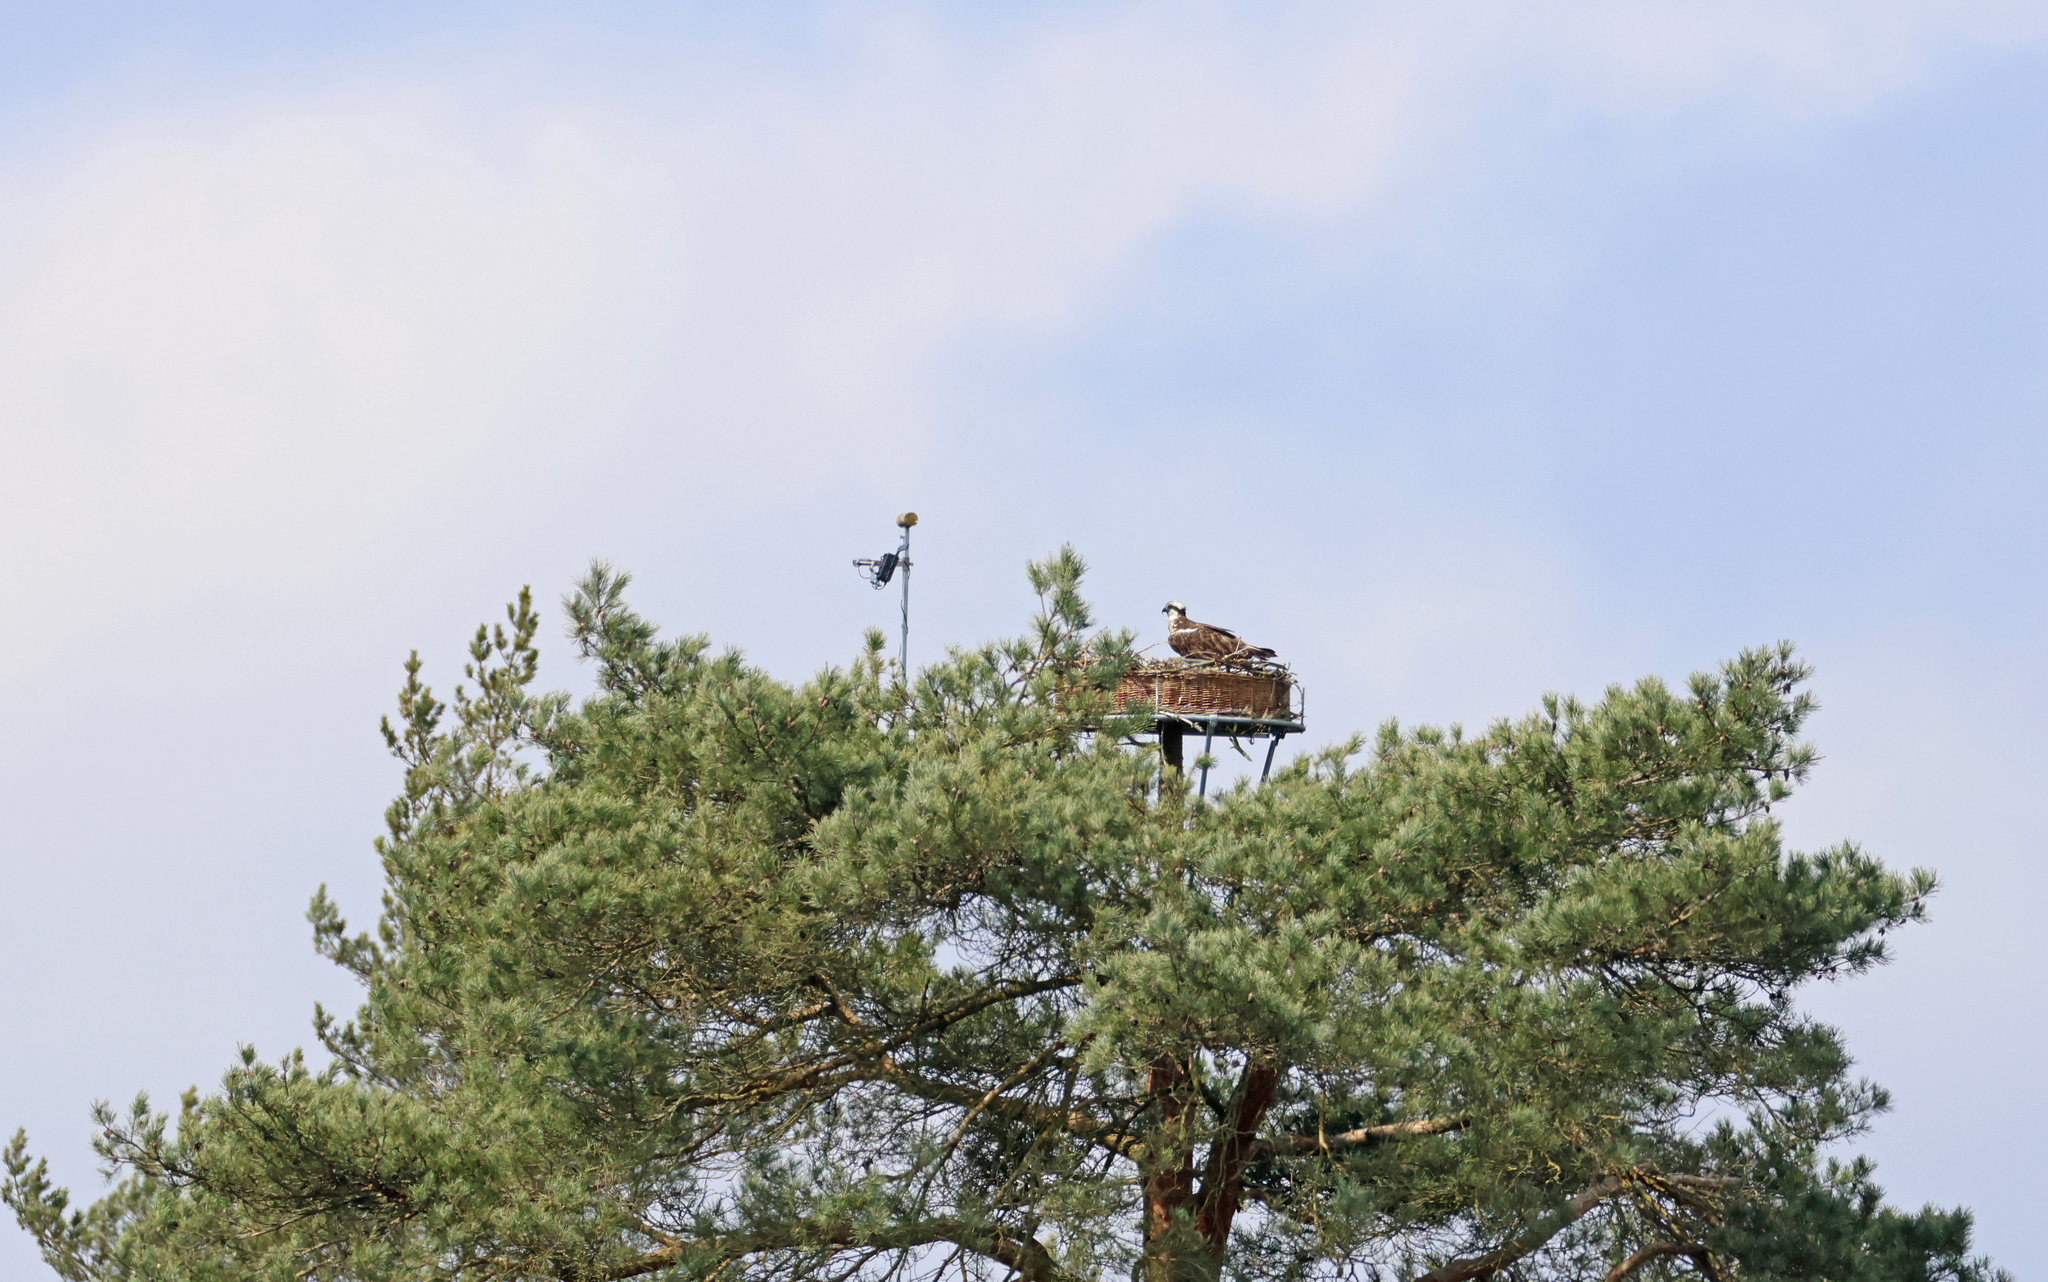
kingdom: Animalia
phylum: Chordata
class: Aves
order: Accipitriformes
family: Pandionidae
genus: Pandion
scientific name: Pandion haliaetus
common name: Osprey
